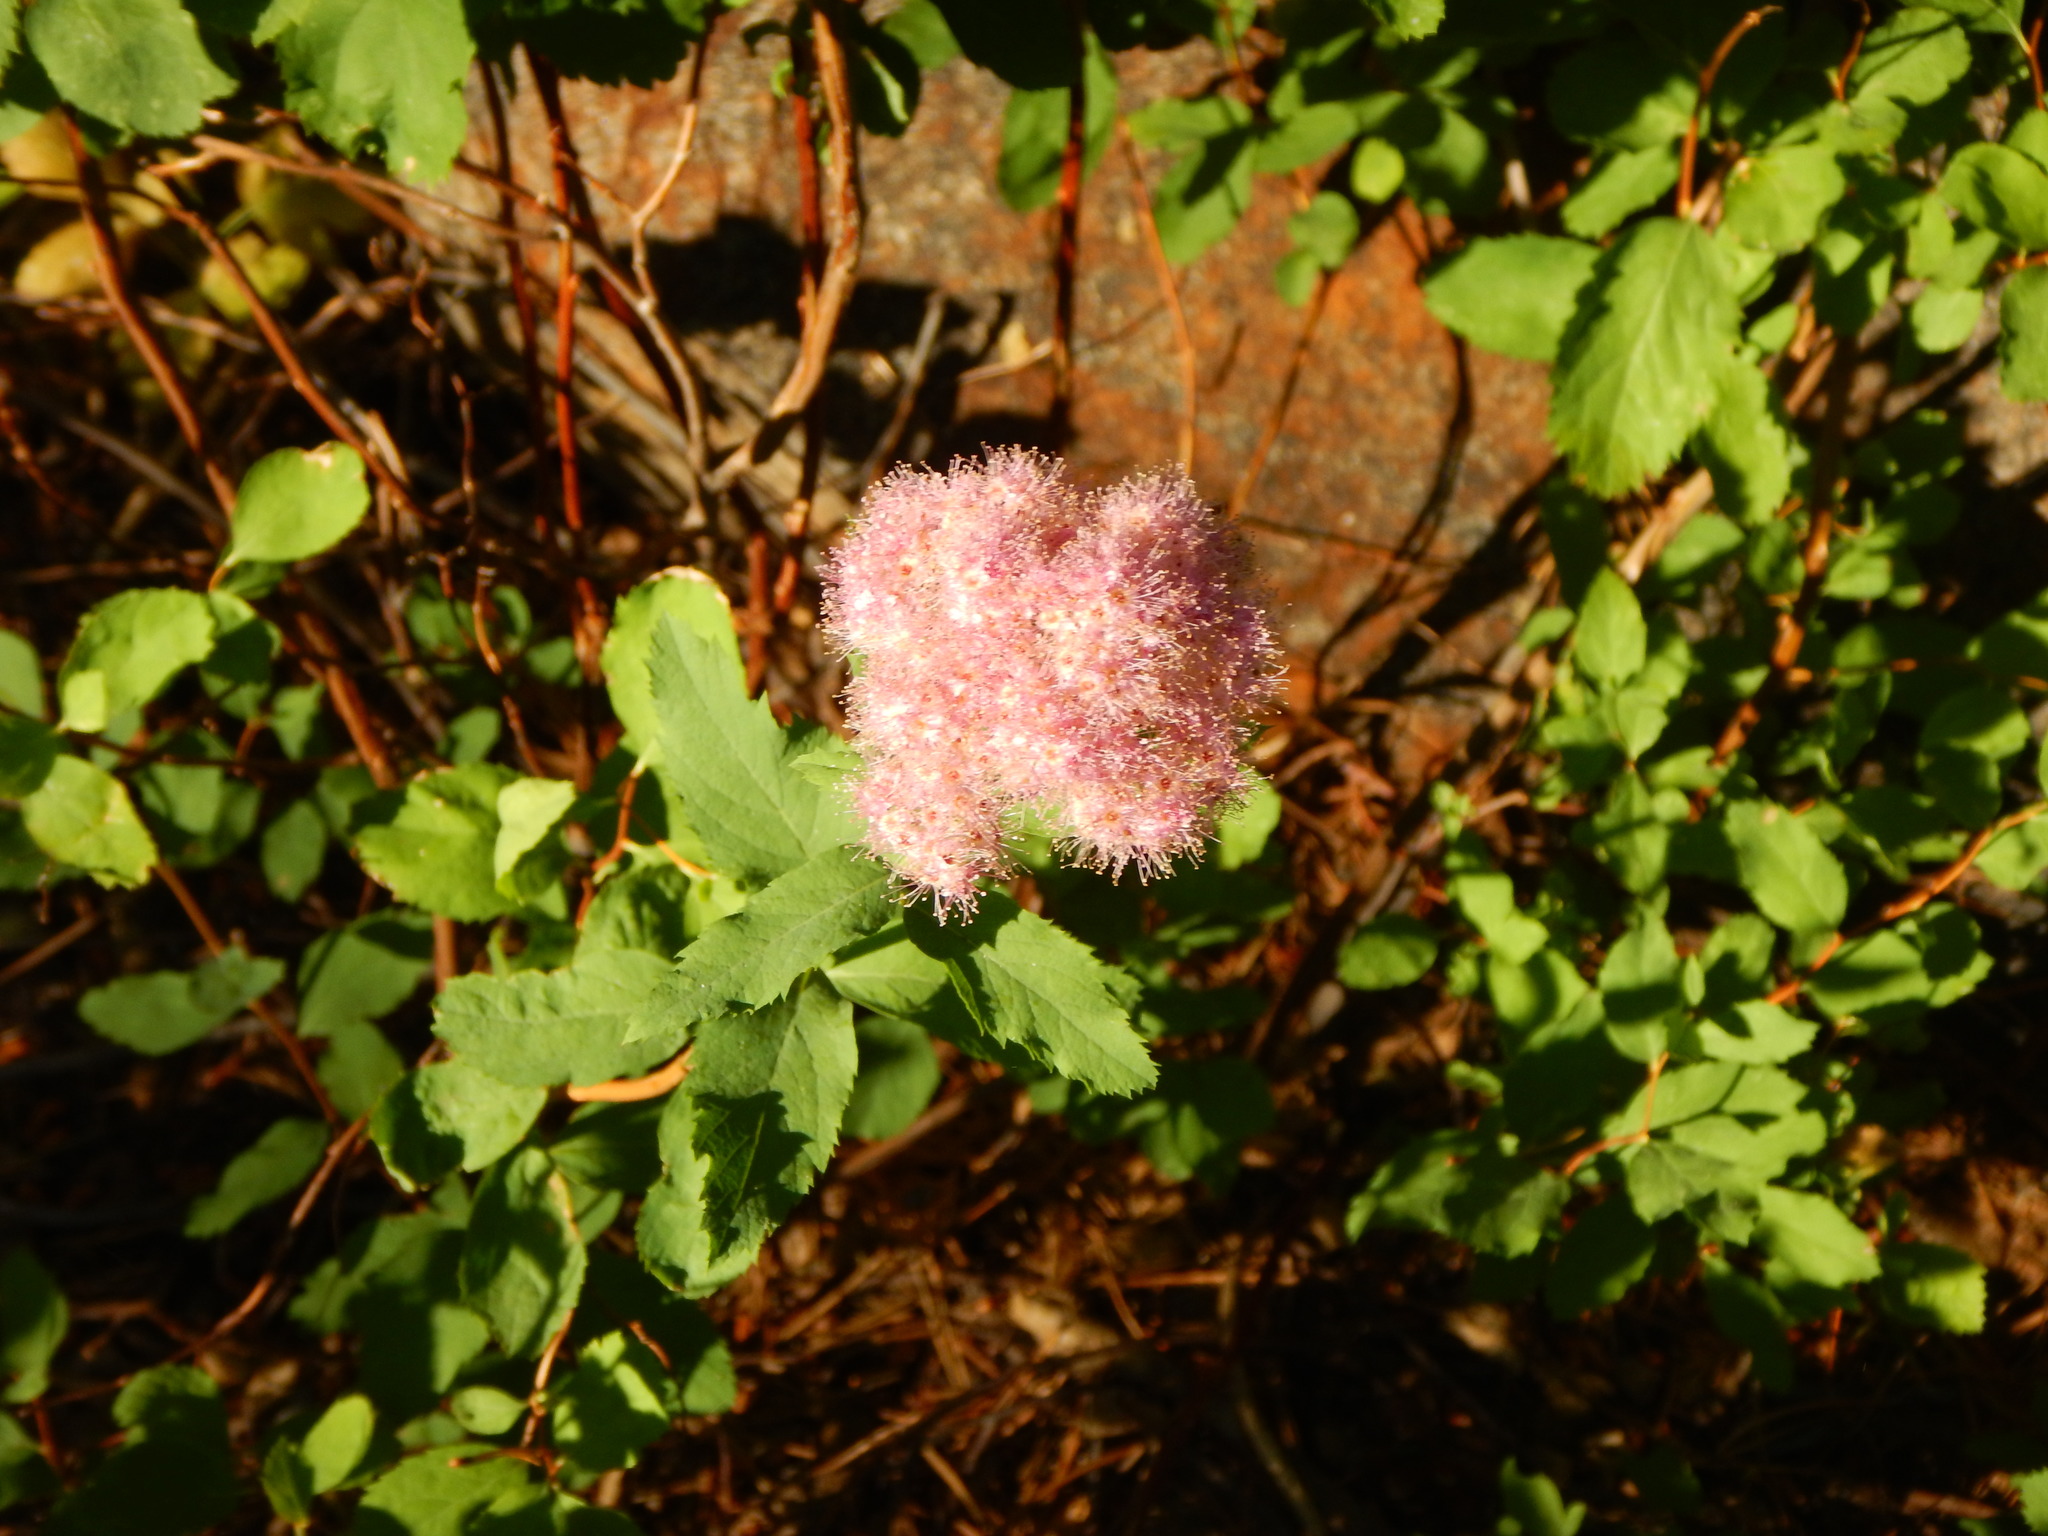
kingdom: Plantae
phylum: Tracheophyta
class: Magnoliopsida
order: Rosales
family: Rosaceae
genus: Spiraea
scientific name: Spiraea splendens
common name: Subalpine meadowsweet
